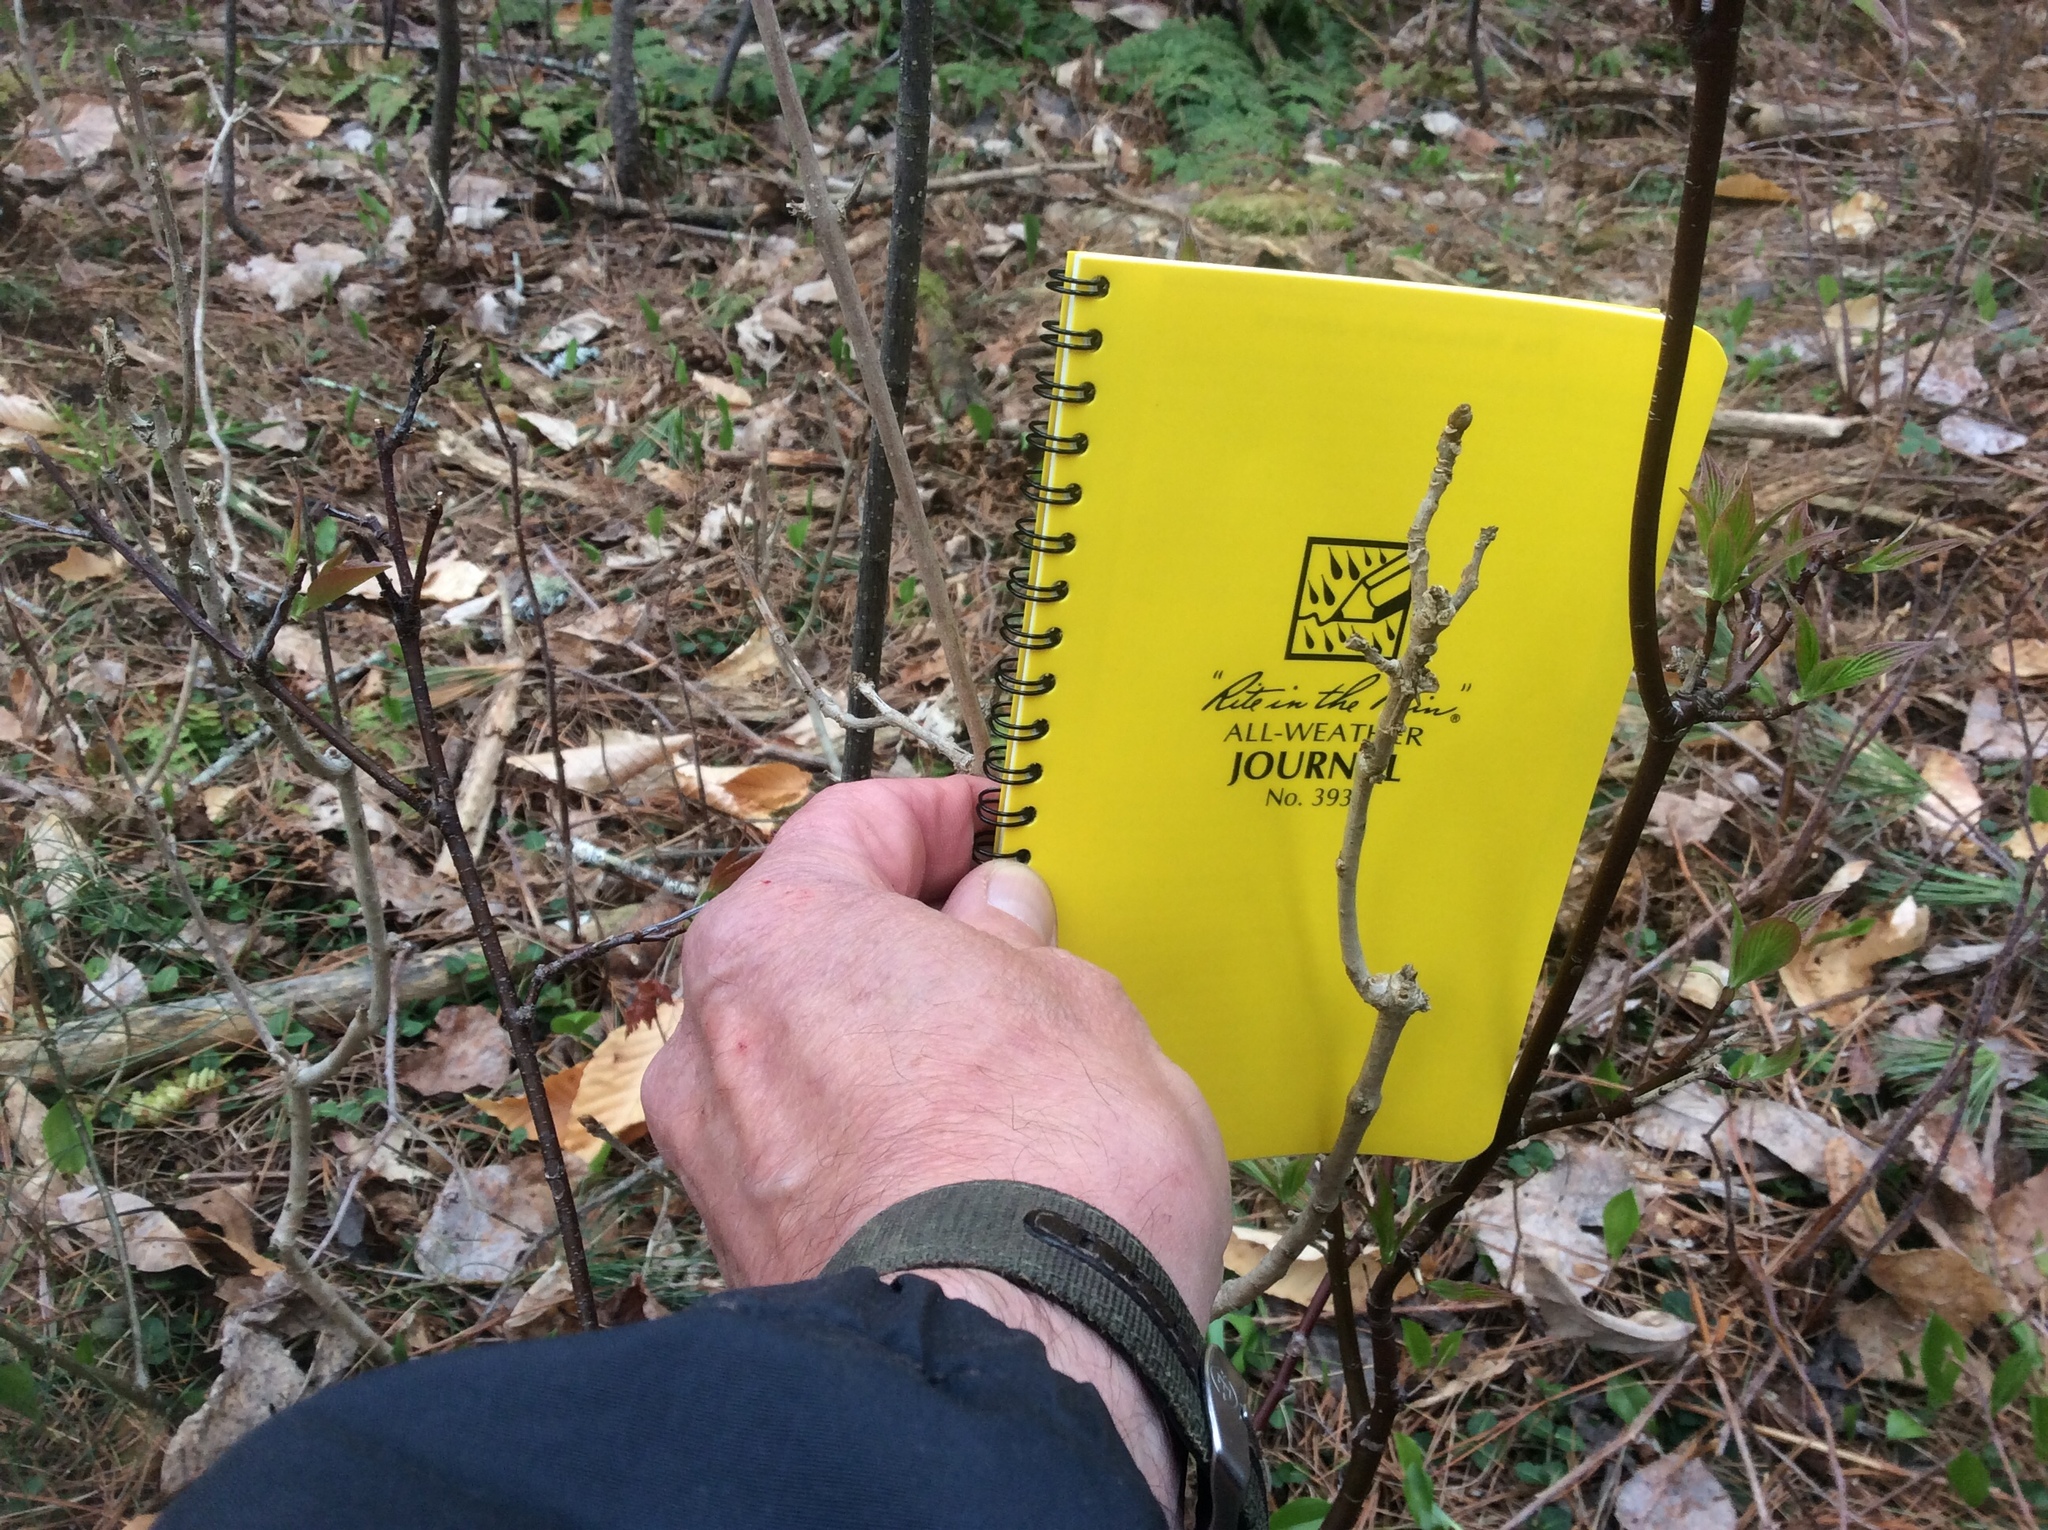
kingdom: Plantae
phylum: Tracheophyta
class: Magnoliopsida
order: Lamiales
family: Oleaceae
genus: Fraxinus
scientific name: Fraxinus americana
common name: White ash
